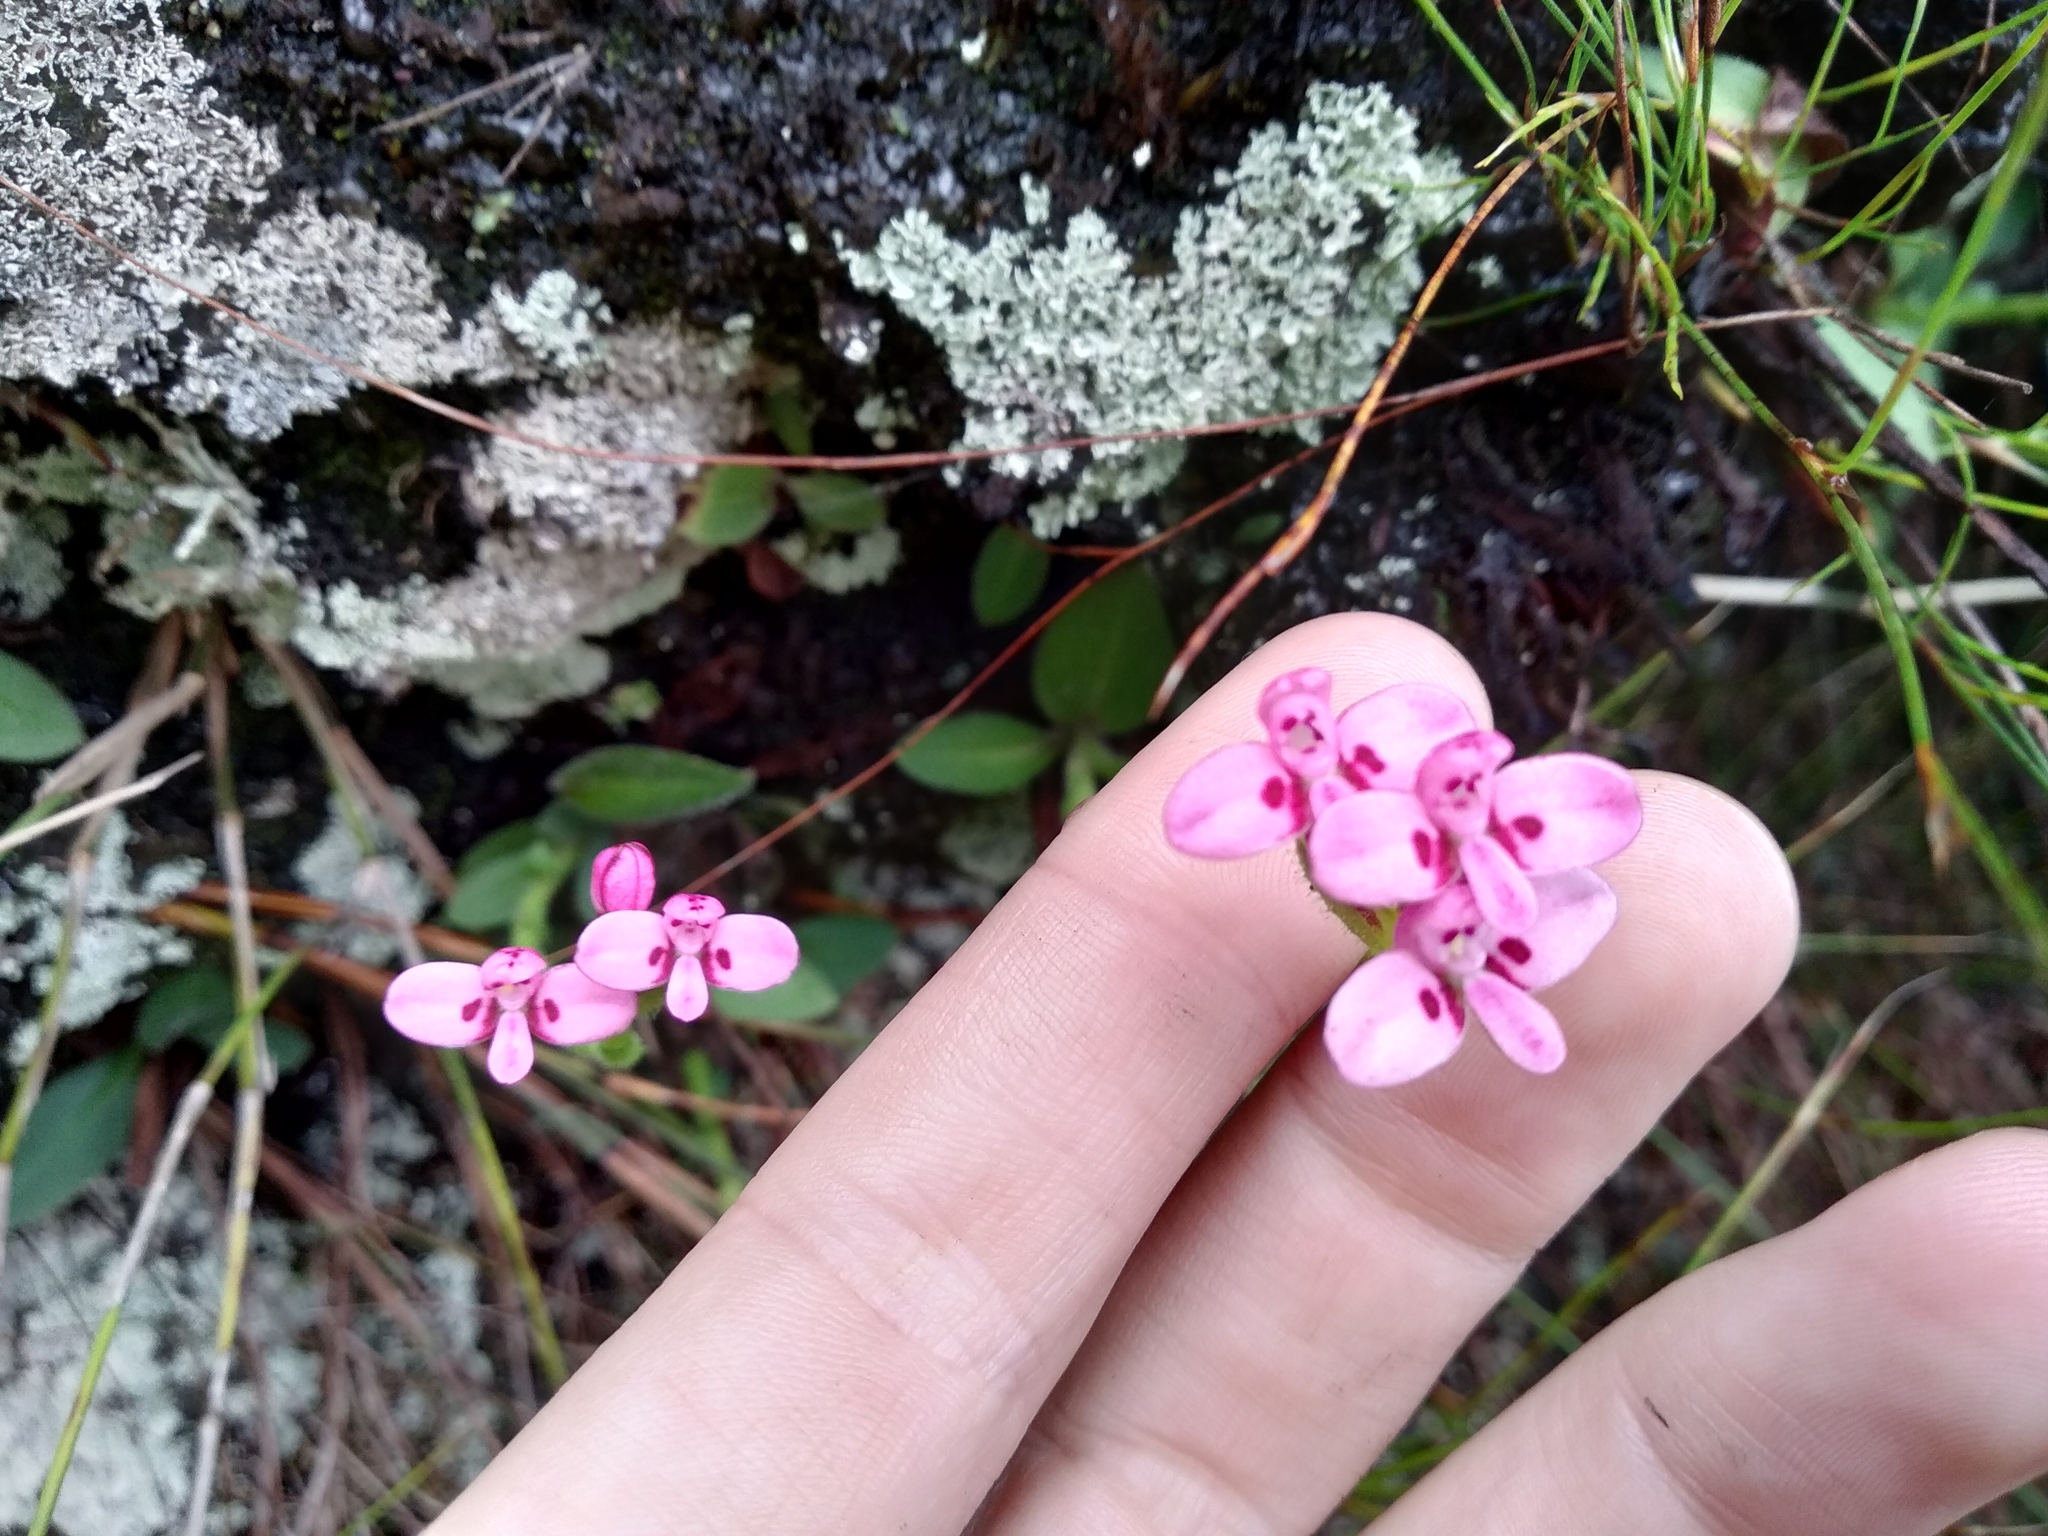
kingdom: Plantae
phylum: Tracheophyta
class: Liliopsida
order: Asparagales
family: Orchidaceae
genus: Disa
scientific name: Disa glandulosa
